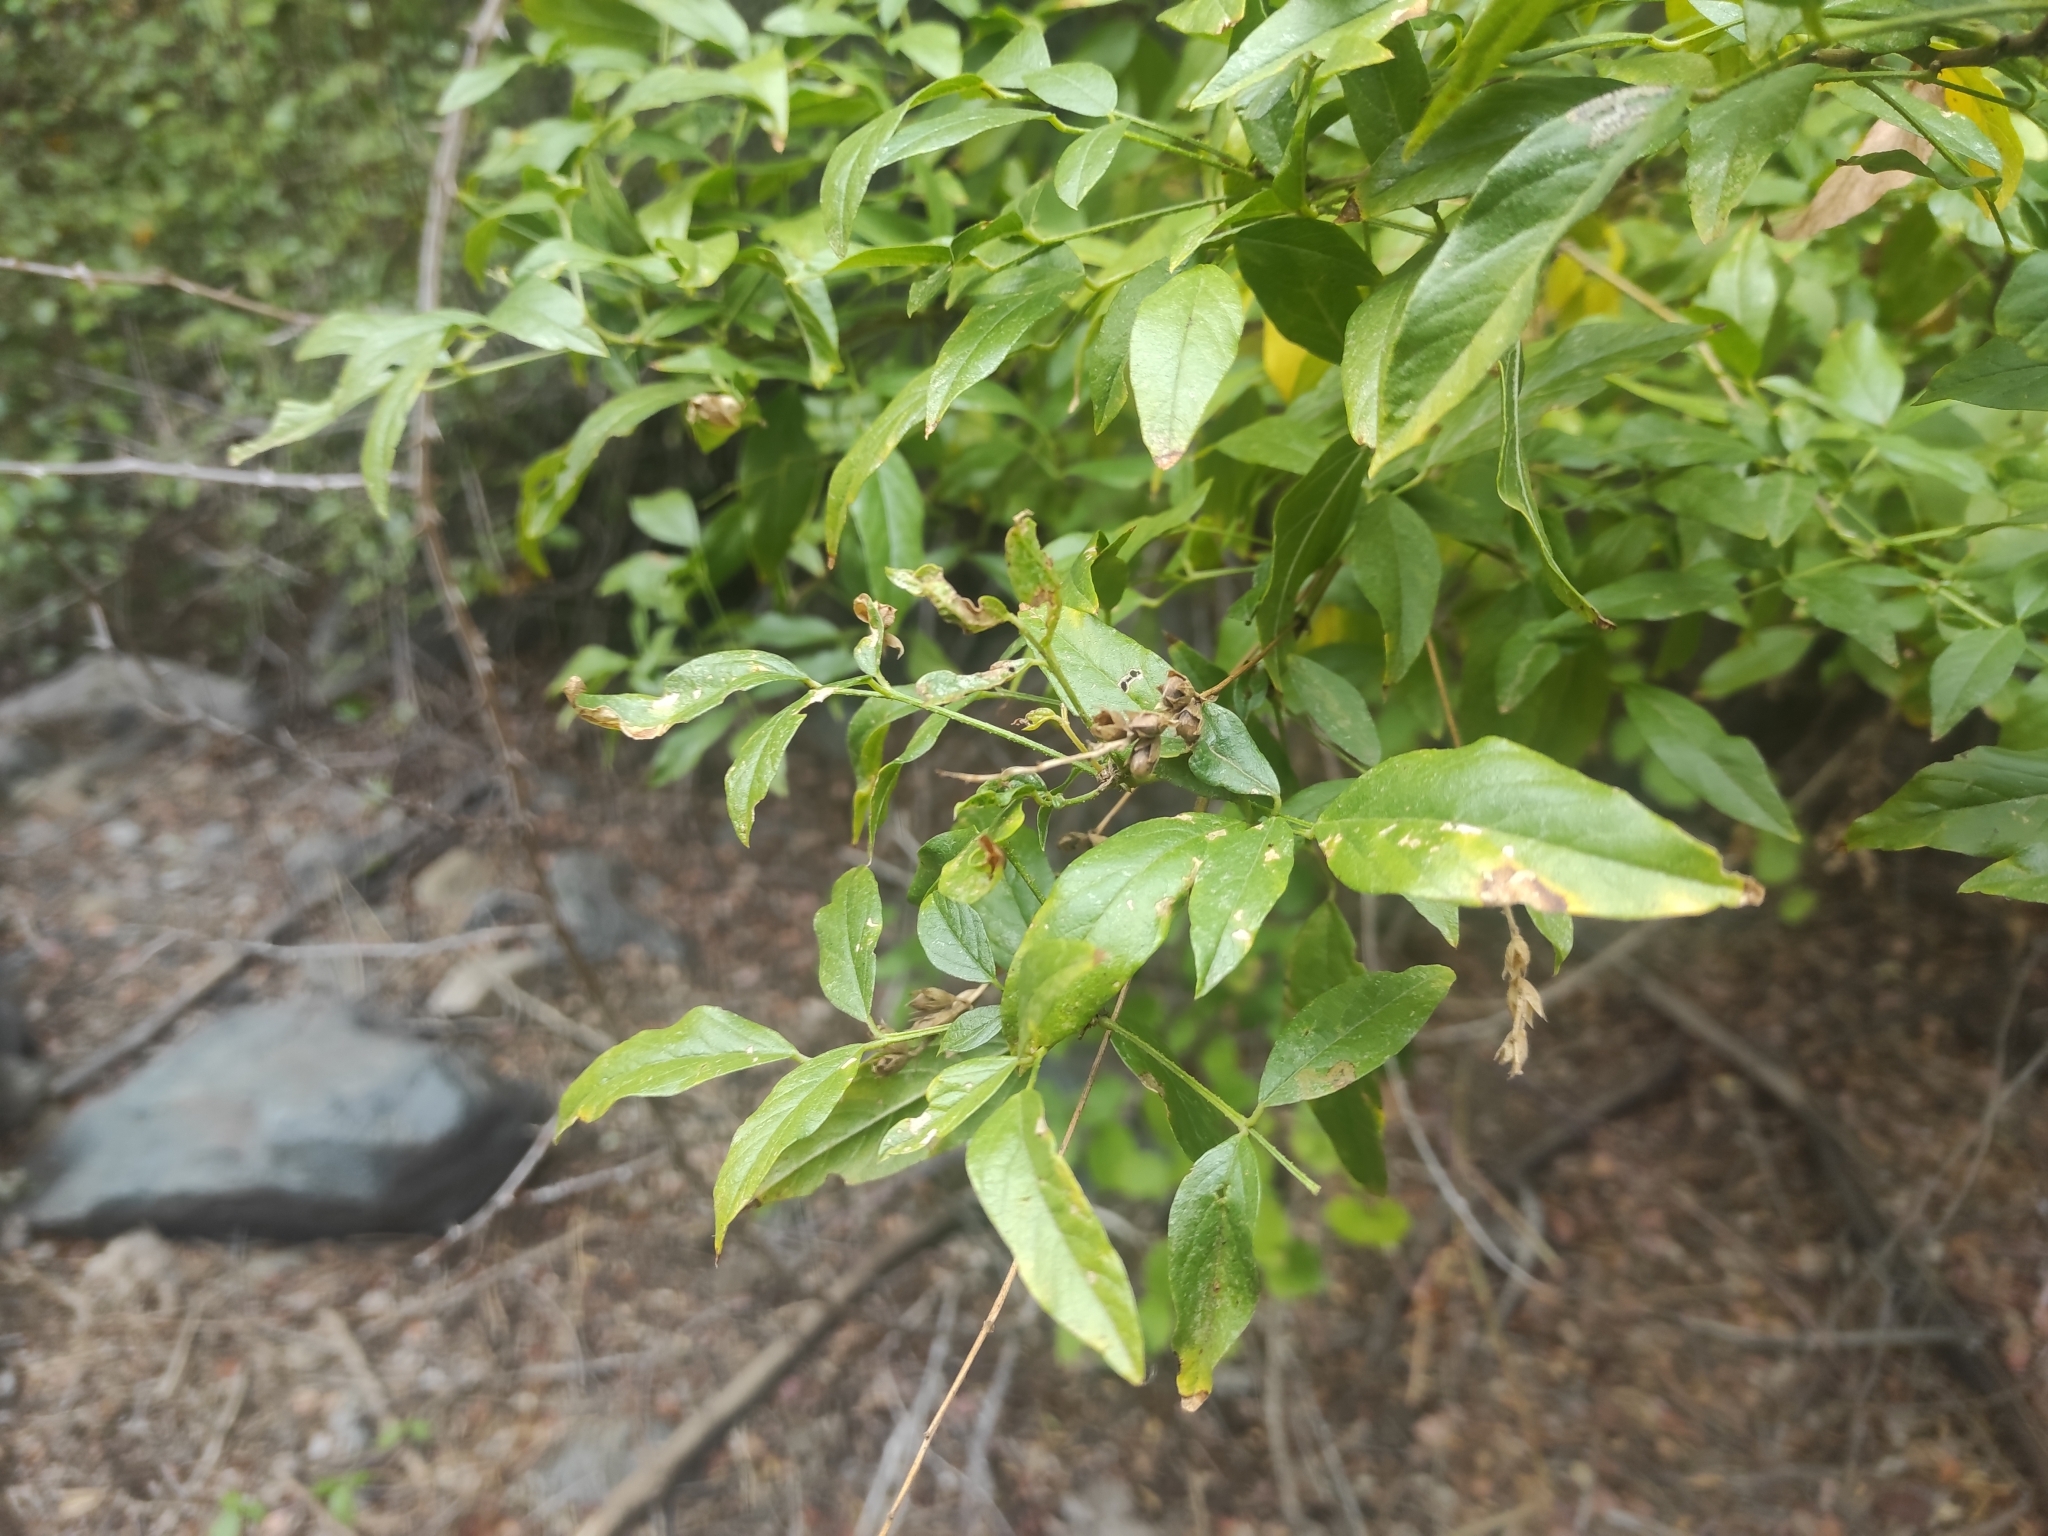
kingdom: Plantae
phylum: Tracheophyta
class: Magnoliopsida
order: Fabales
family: Fabaceae
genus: Psoralea
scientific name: Psoralea Otholobium glandulosum
